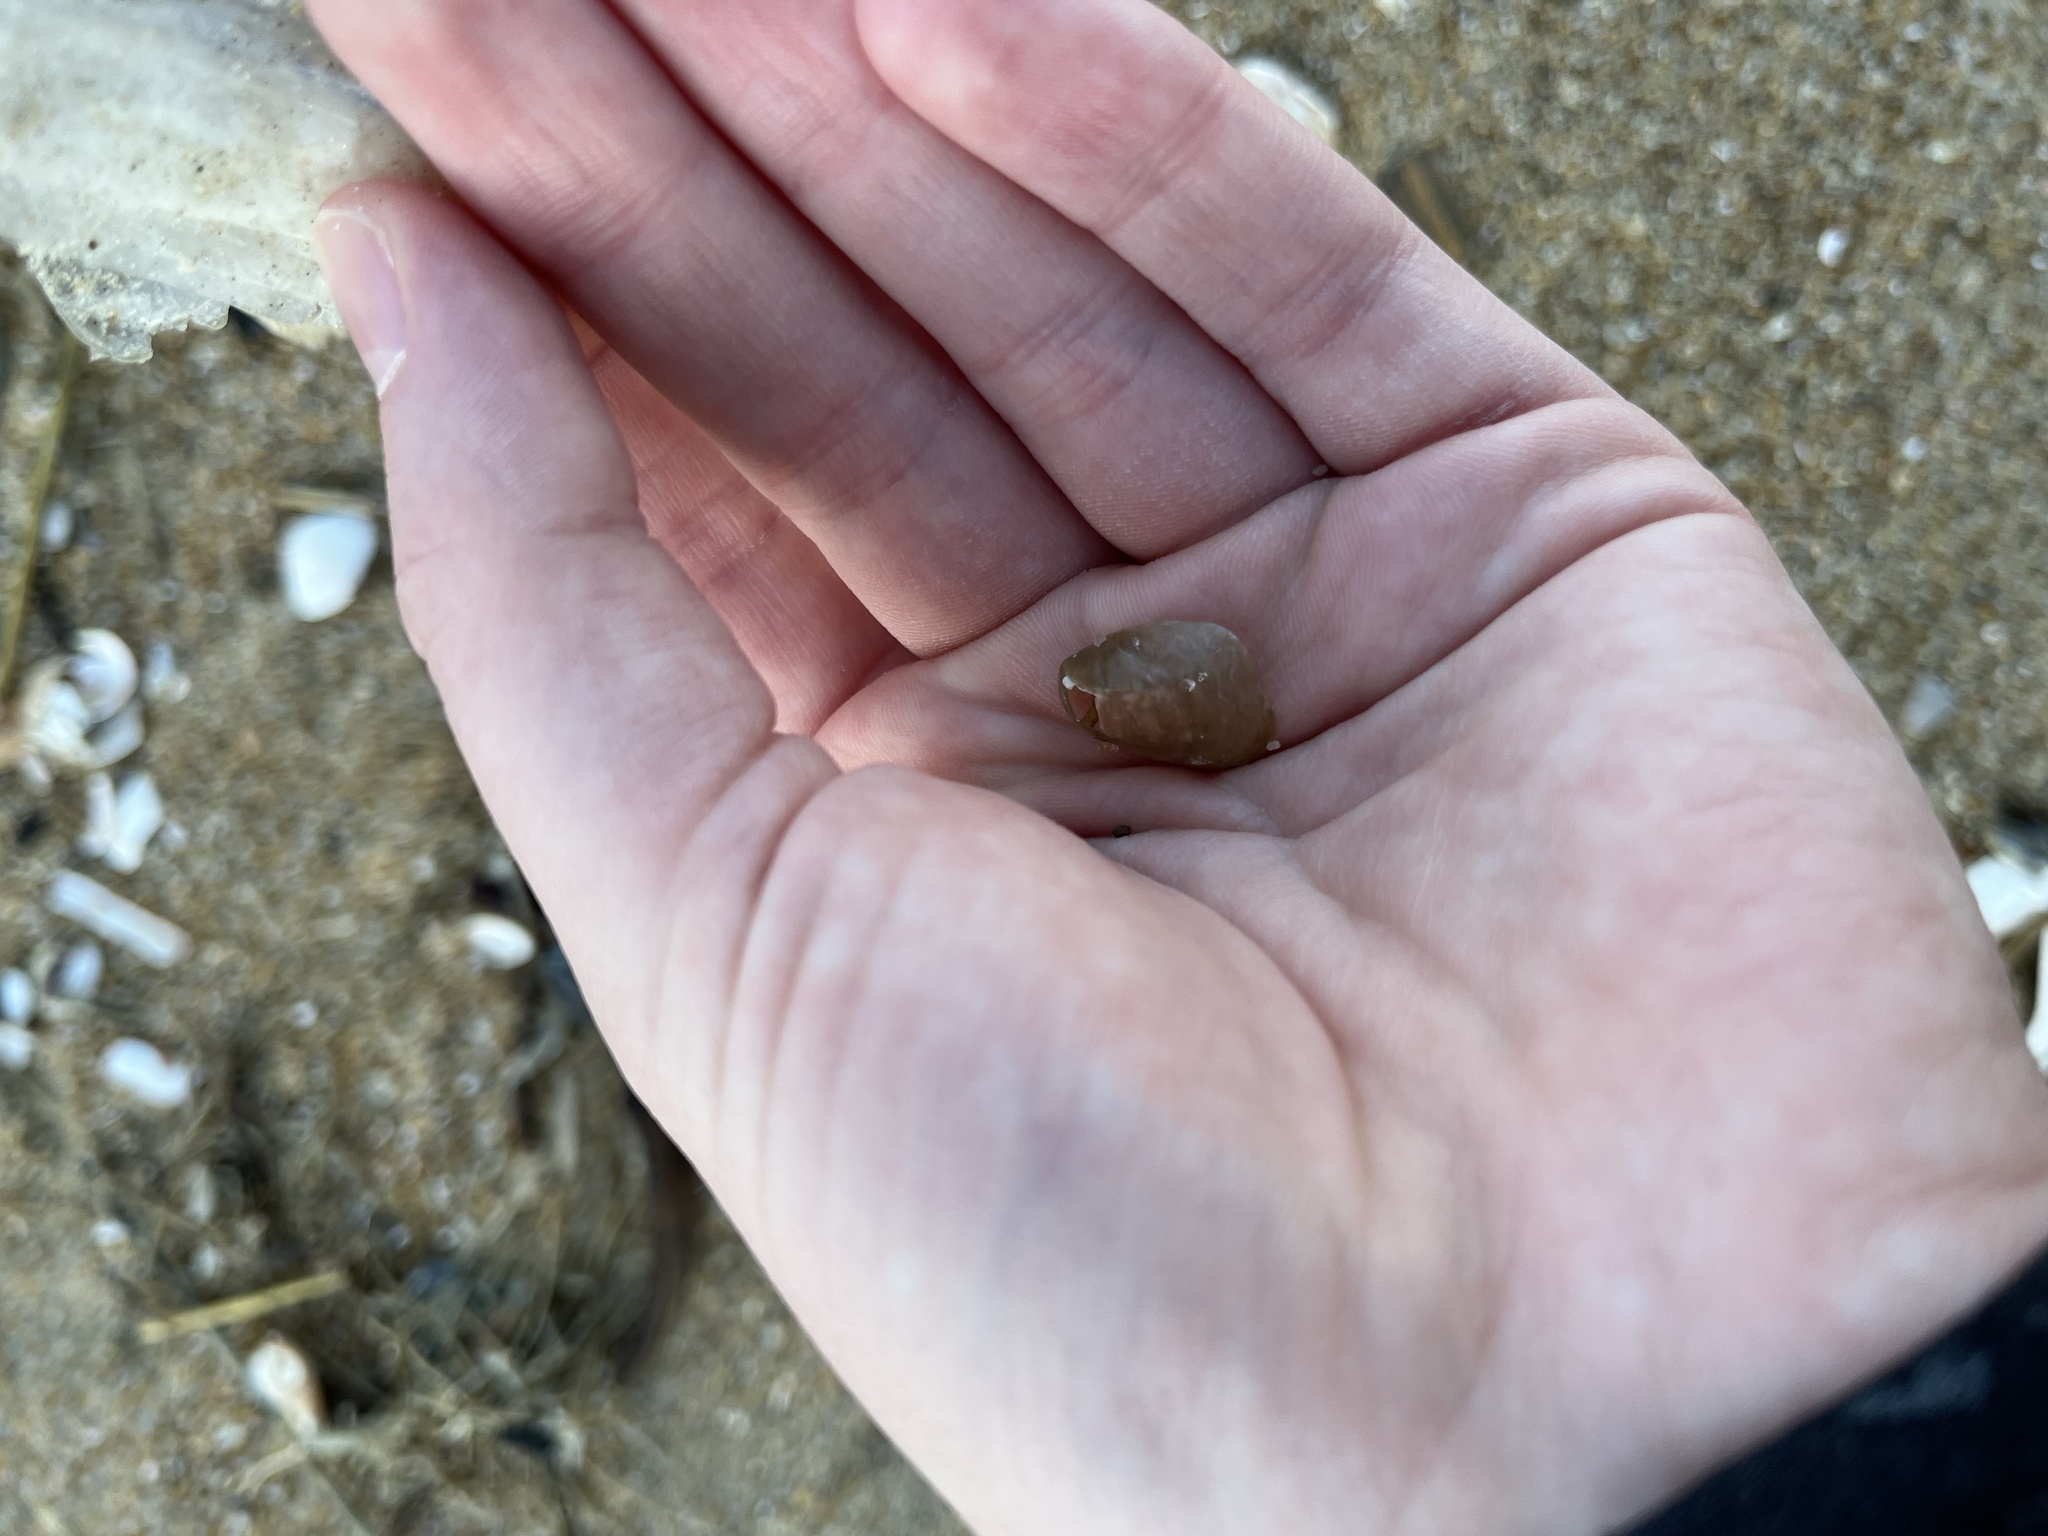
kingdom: Animalia
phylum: Mollusca
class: Bivalvia
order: Pectinida
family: Anomiidae
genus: Anomia
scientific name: Anomia simplex
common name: Common jingle shell
